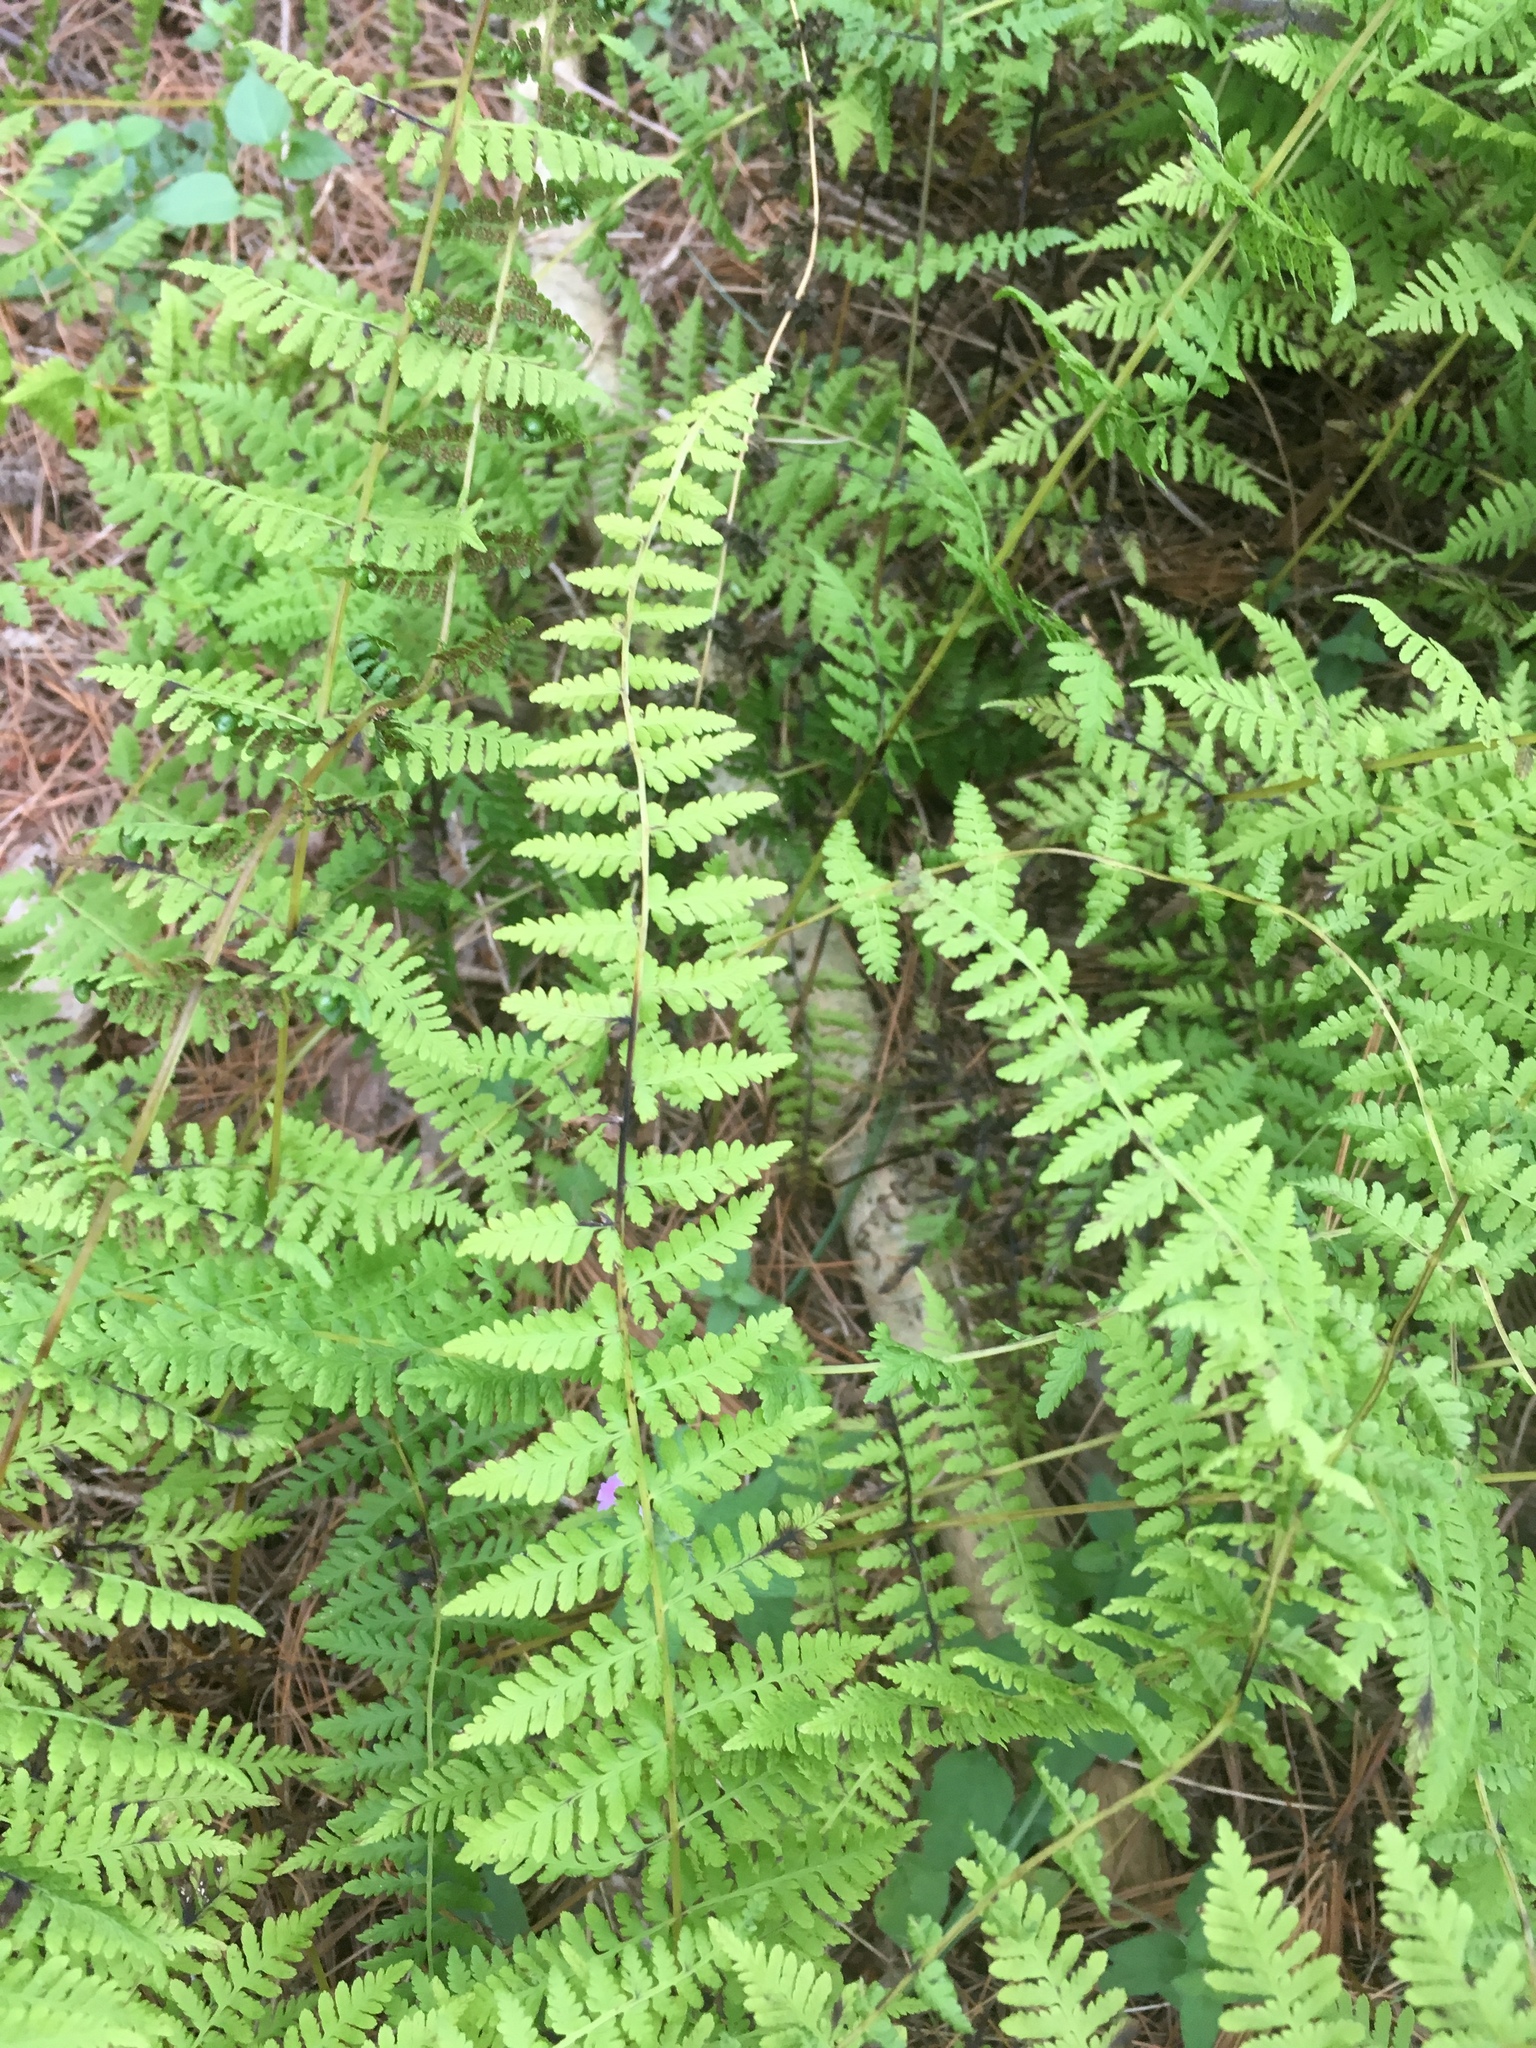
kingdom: Plantae
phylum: Tracheophyta
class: Polypodiopsida
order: Polypodiales
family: Cystopteridaceae
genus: Cystopteris
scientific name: Cystopteris bulbifera
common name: Bulblet bladder fern
